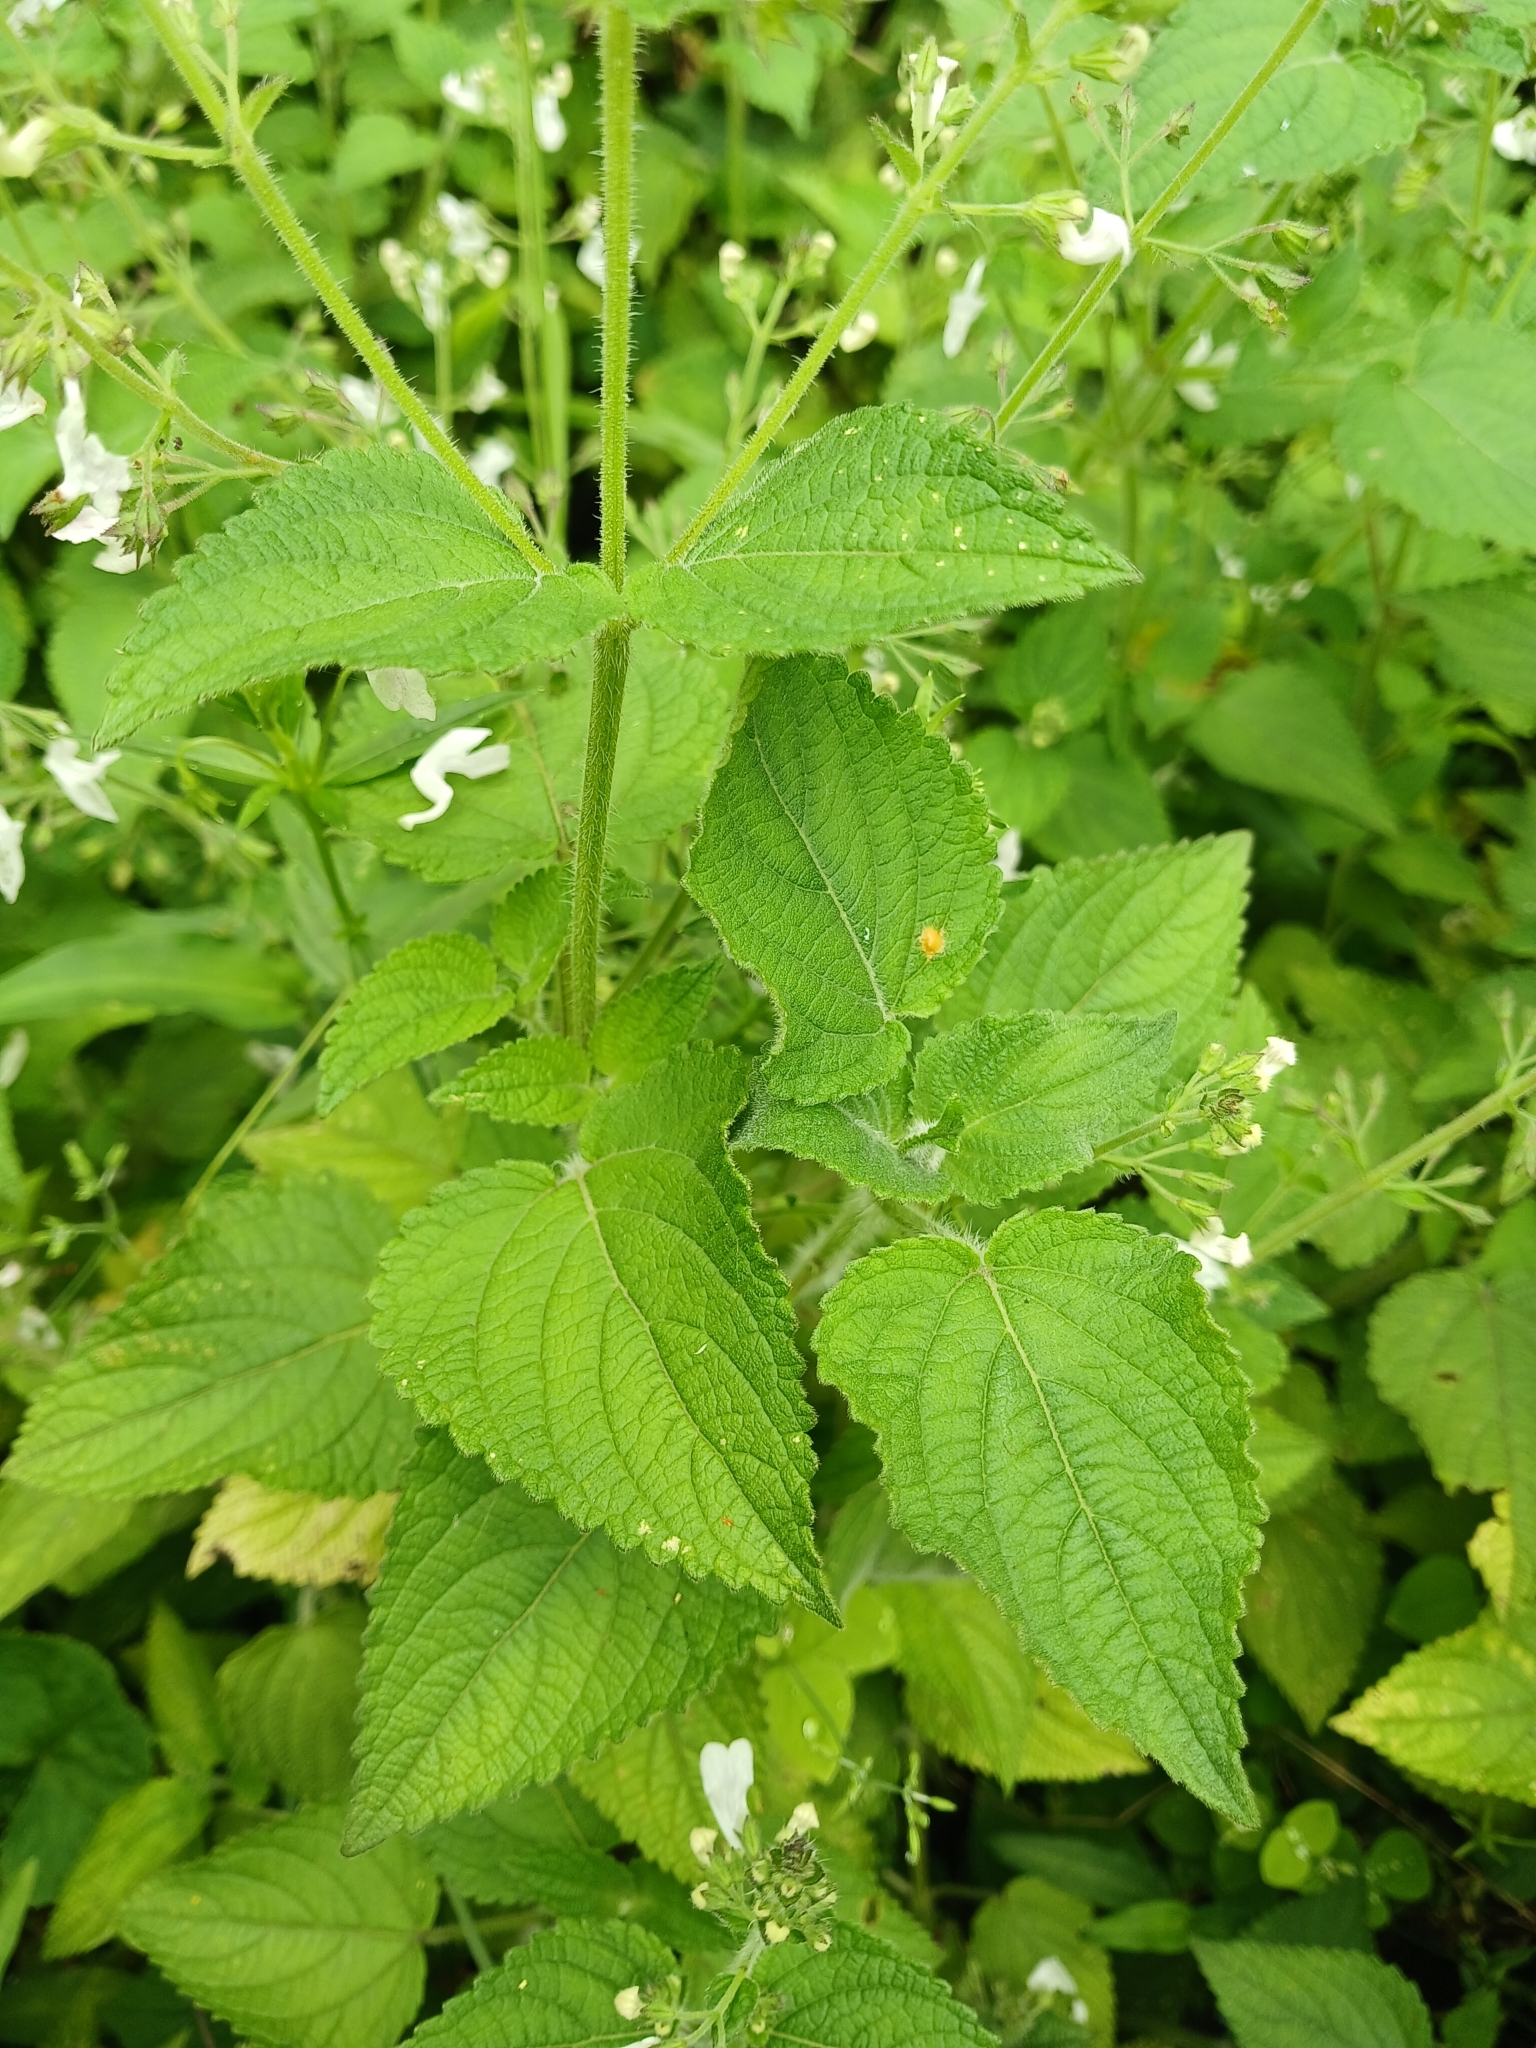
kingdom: Plantae
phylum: Tracheophyta
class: Magnoliopsida
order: Lamiales
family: Lamiaceae
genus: Equilabium
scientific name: Equilabium laxiflorum
